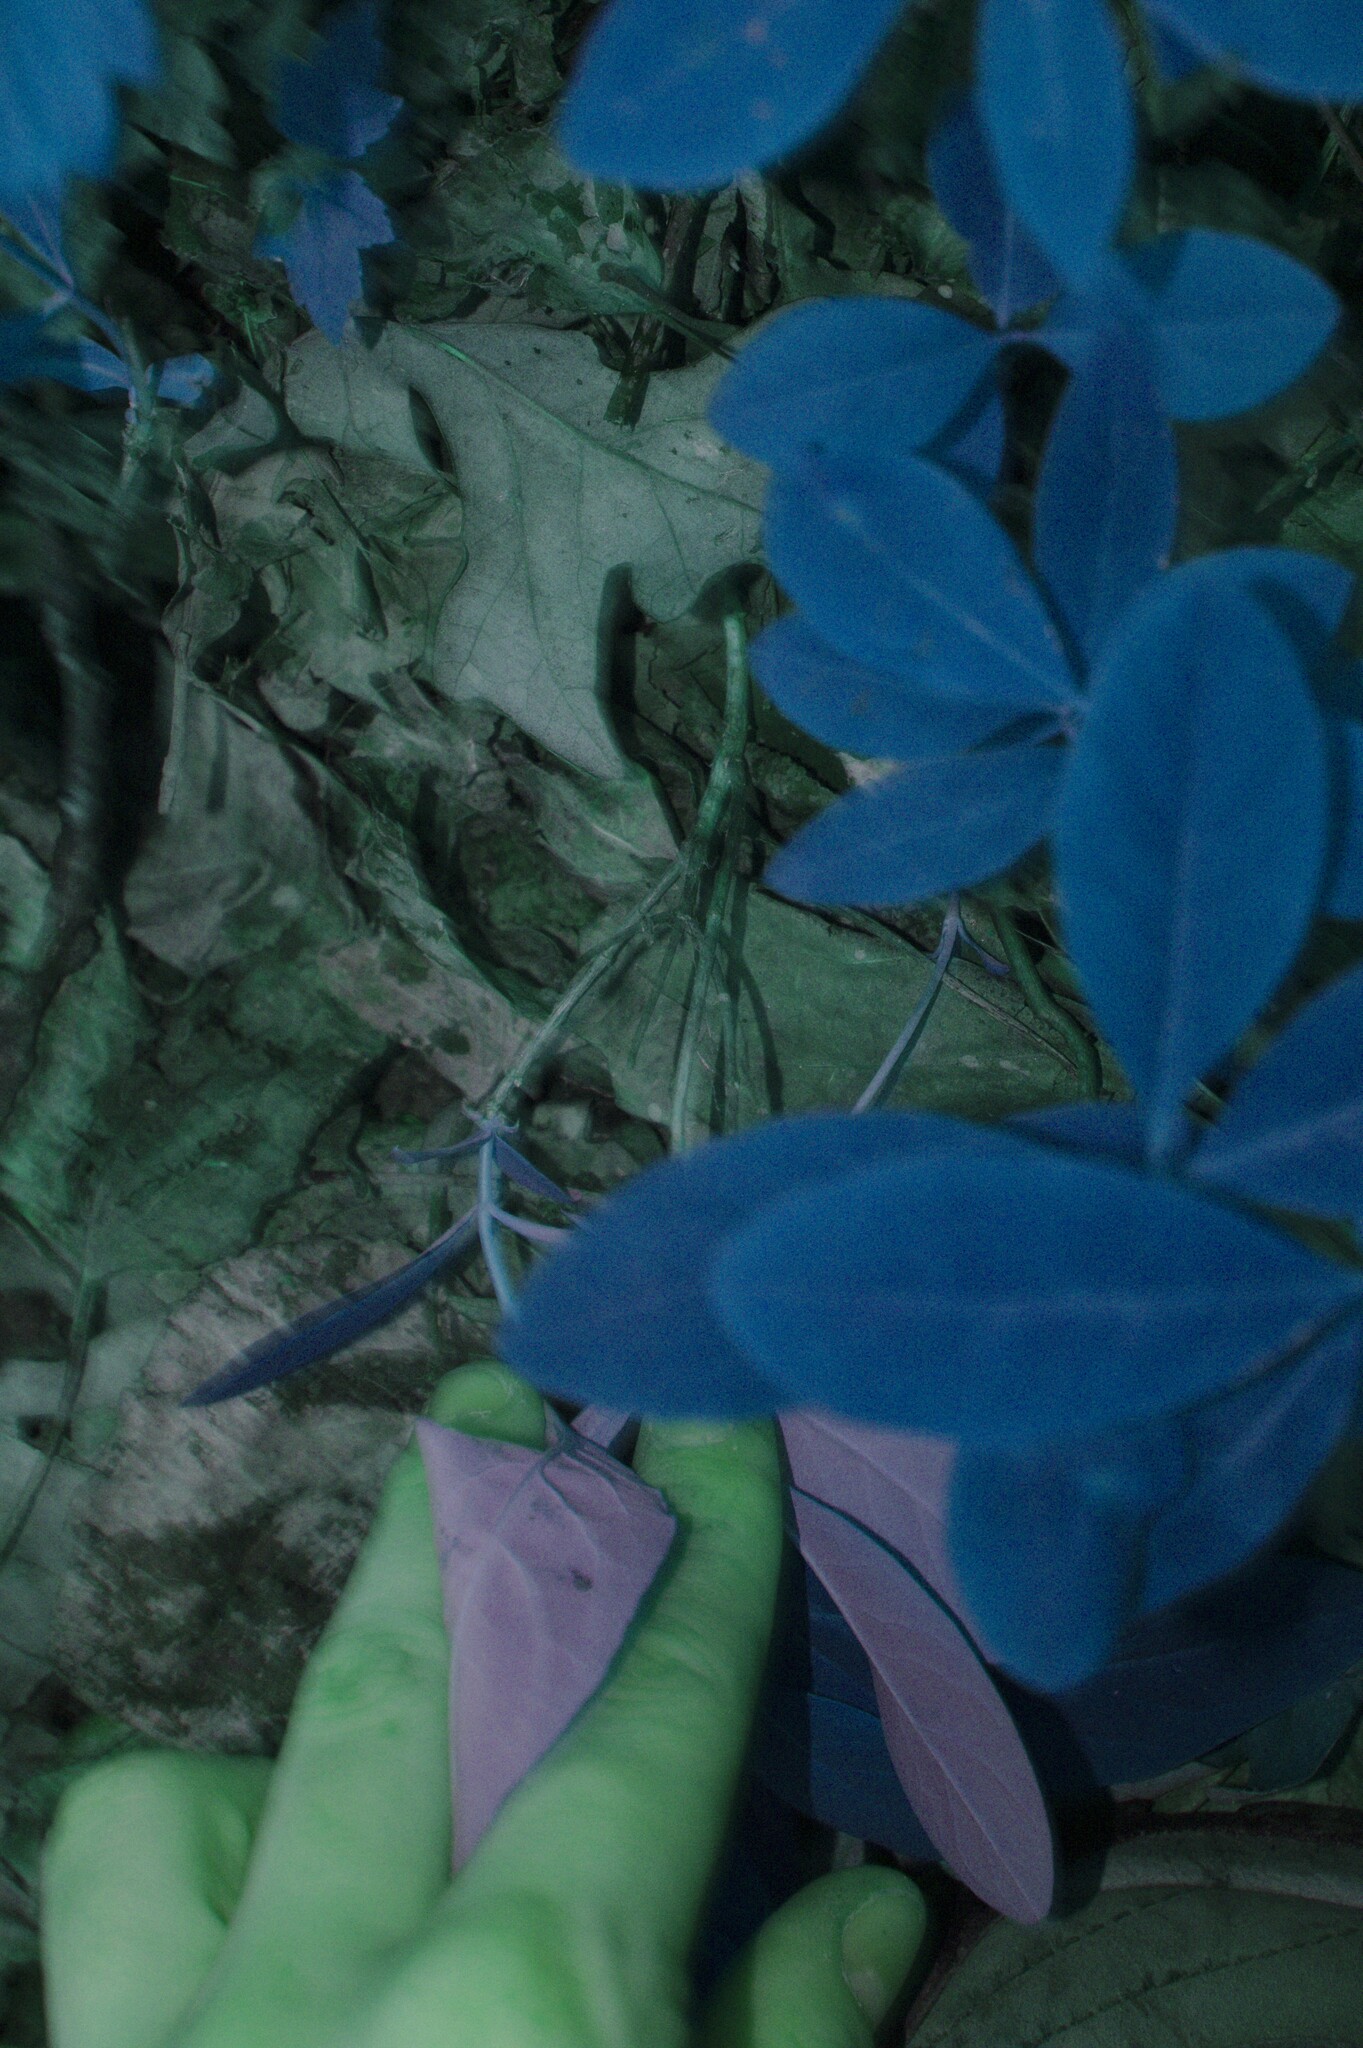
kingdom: Plantae
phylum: Tracheophyta
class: Magnoliopsida
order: Dipsacales
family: Caprifoliaceae
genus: Lonicera
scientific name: Lonicera dioica
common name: Limber honeysuckle
